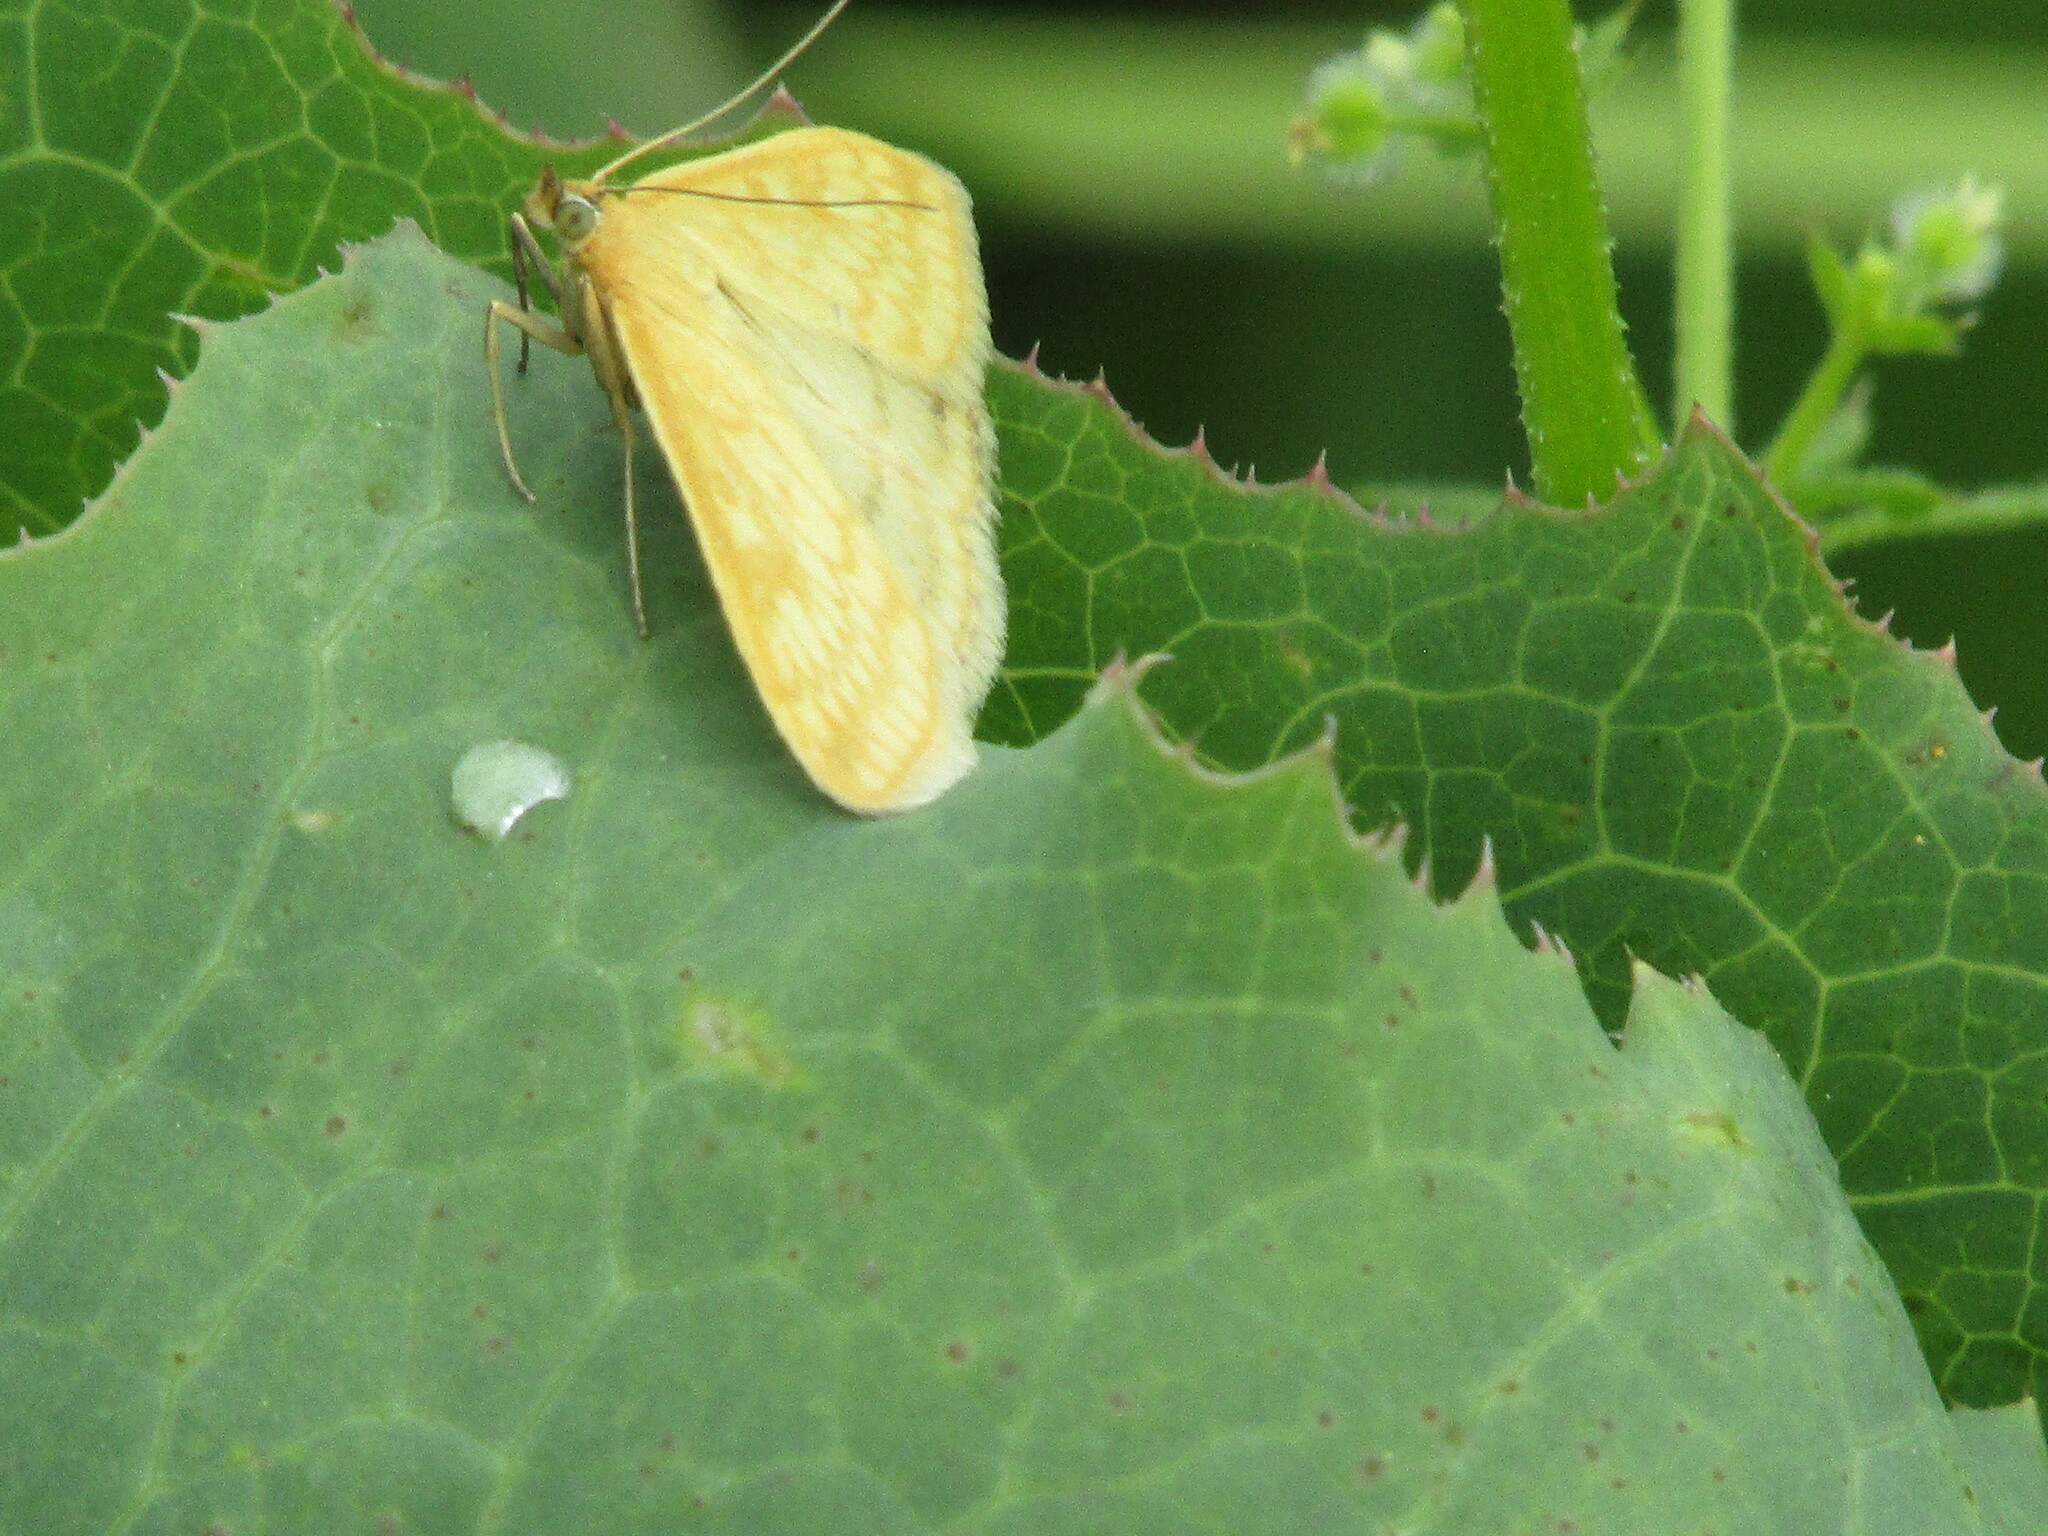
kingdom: Animalia
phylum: Arthropoda
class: Insecta
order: Lepidoptera
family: Crambidae
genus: Sitochroa
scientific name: Sitochroa verticalis
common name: Lesser pearl
